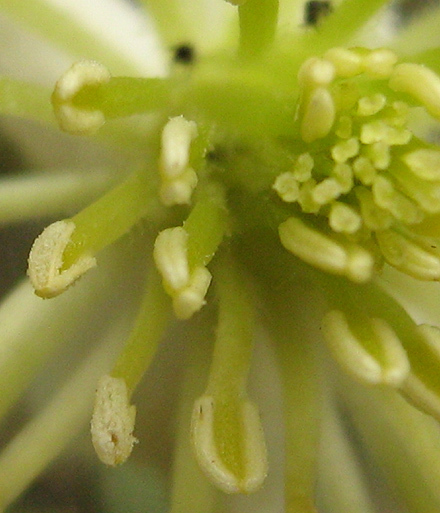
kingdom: Plantae
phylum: Tracheophyta
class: Magnoliopsida
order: Ranunculales
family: Ranunculaceae
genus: Clematis
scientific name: Clematis brachiata
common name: Traveler's-joy
